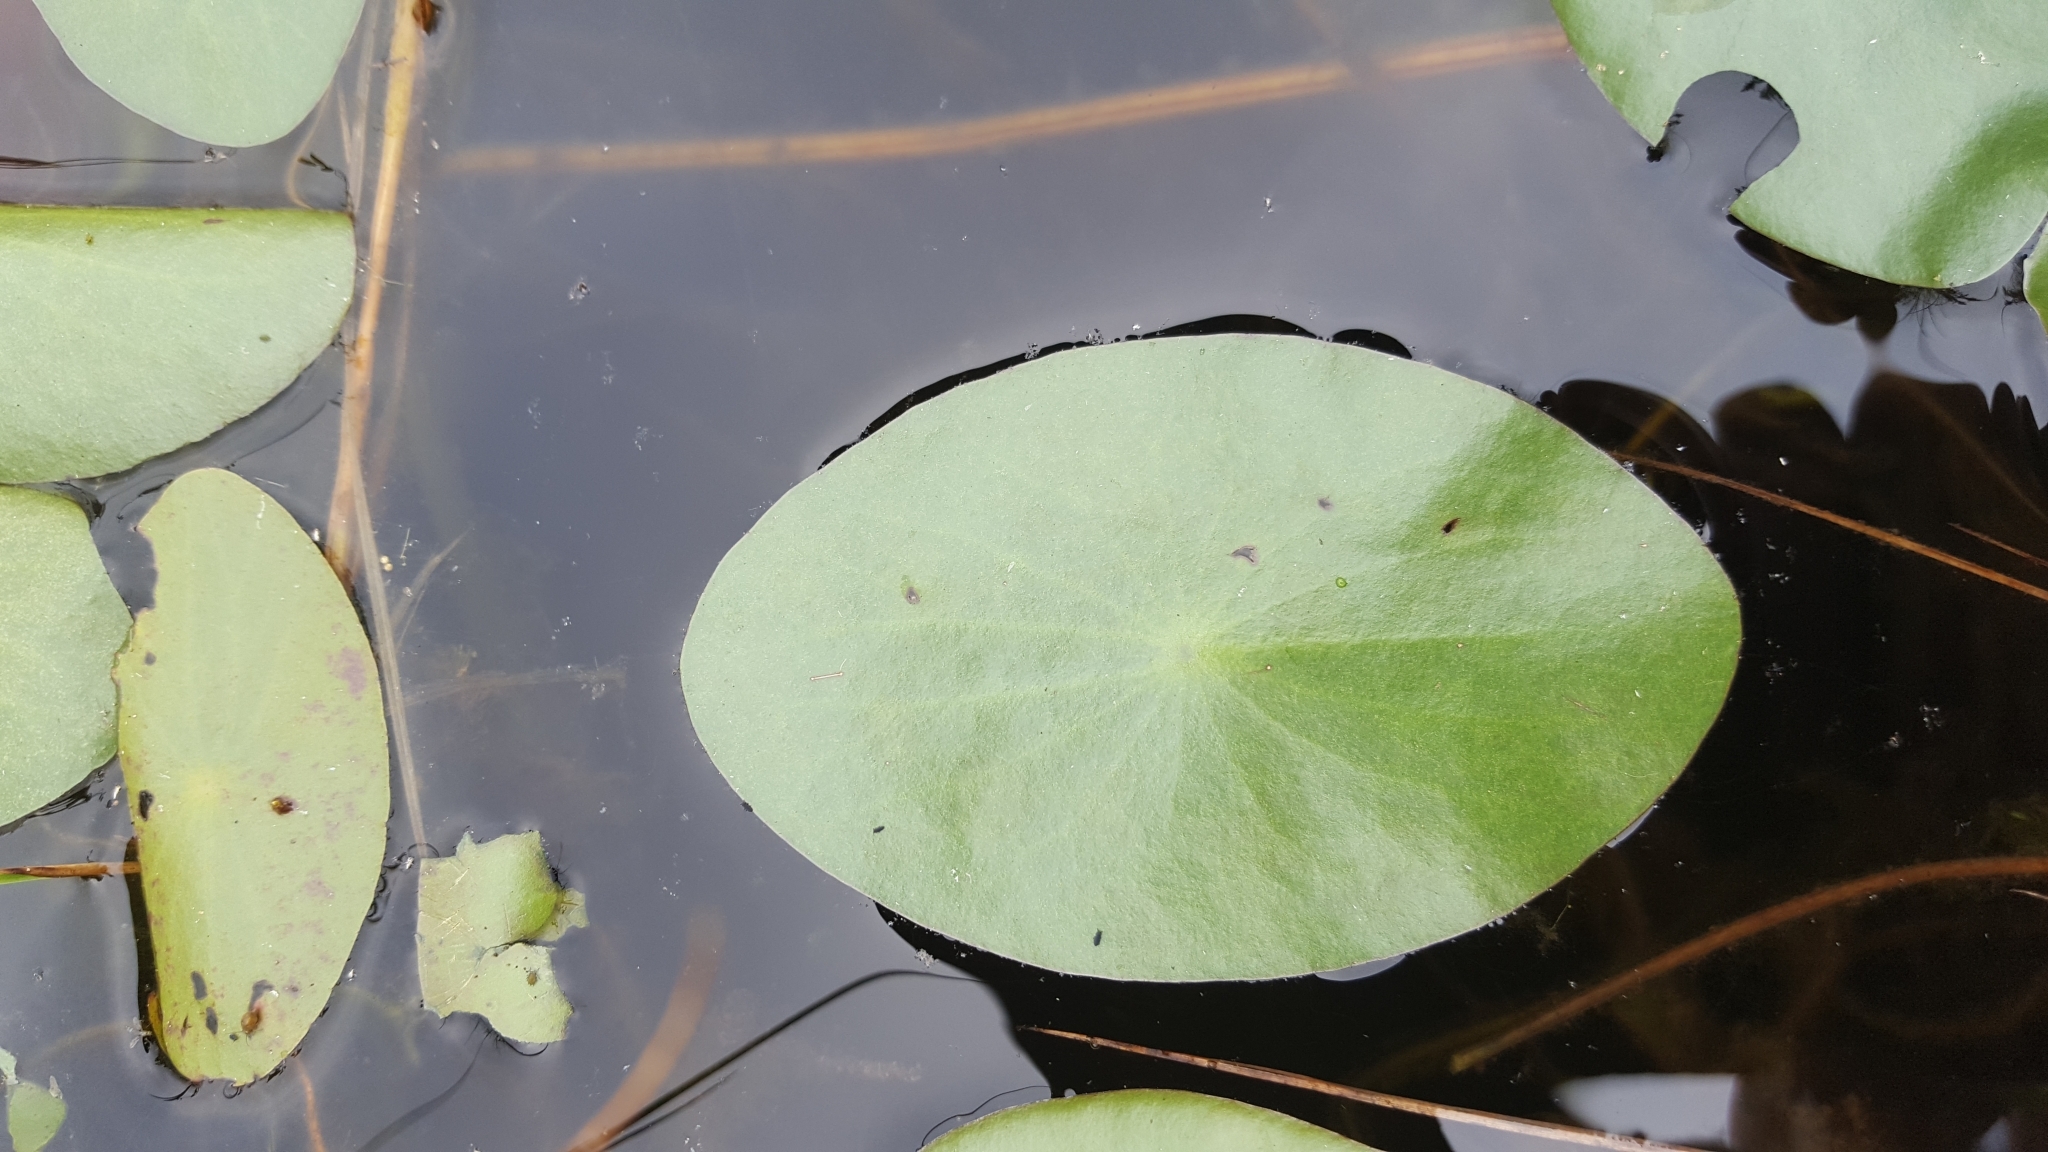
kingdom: Plantae
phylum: Tracheophyta
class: Magnoliopsida
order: Nymphaeales
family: Cabombaceae
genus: Brasenia
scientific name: Brasenia schreberi
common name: Water-shield
